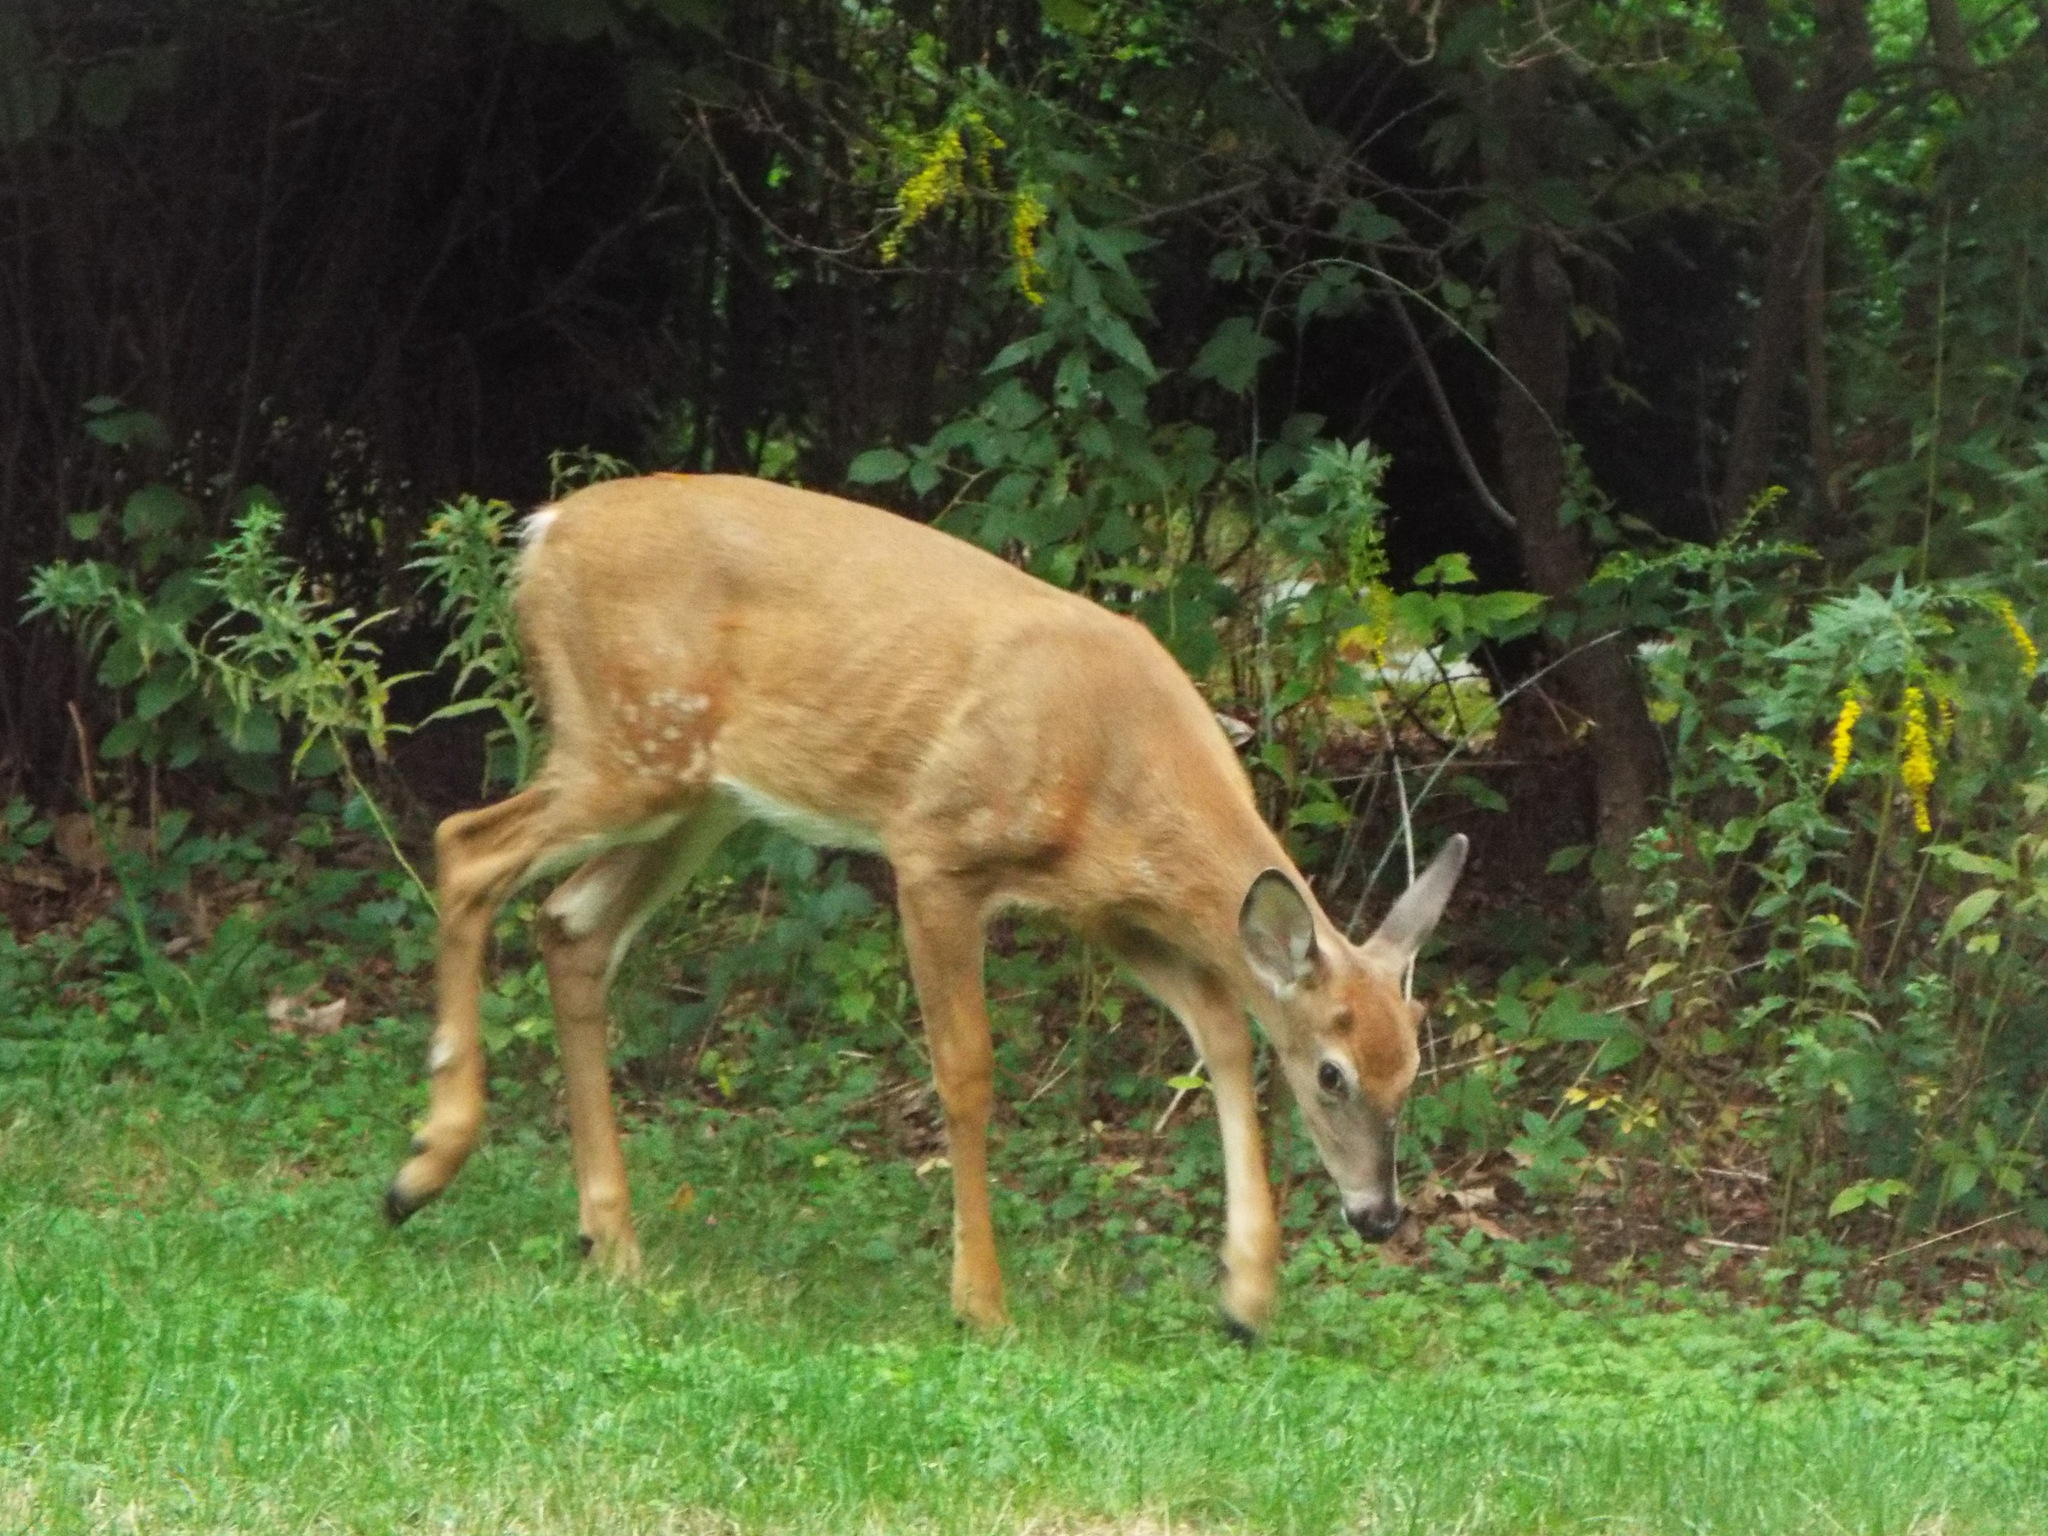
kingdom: Animalia
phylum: Chordata
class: Mammalia
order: Artiodactyla
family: Cervidae
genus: Odocoileus
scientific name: Odocoileus virginianus
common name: White-tailed deer
